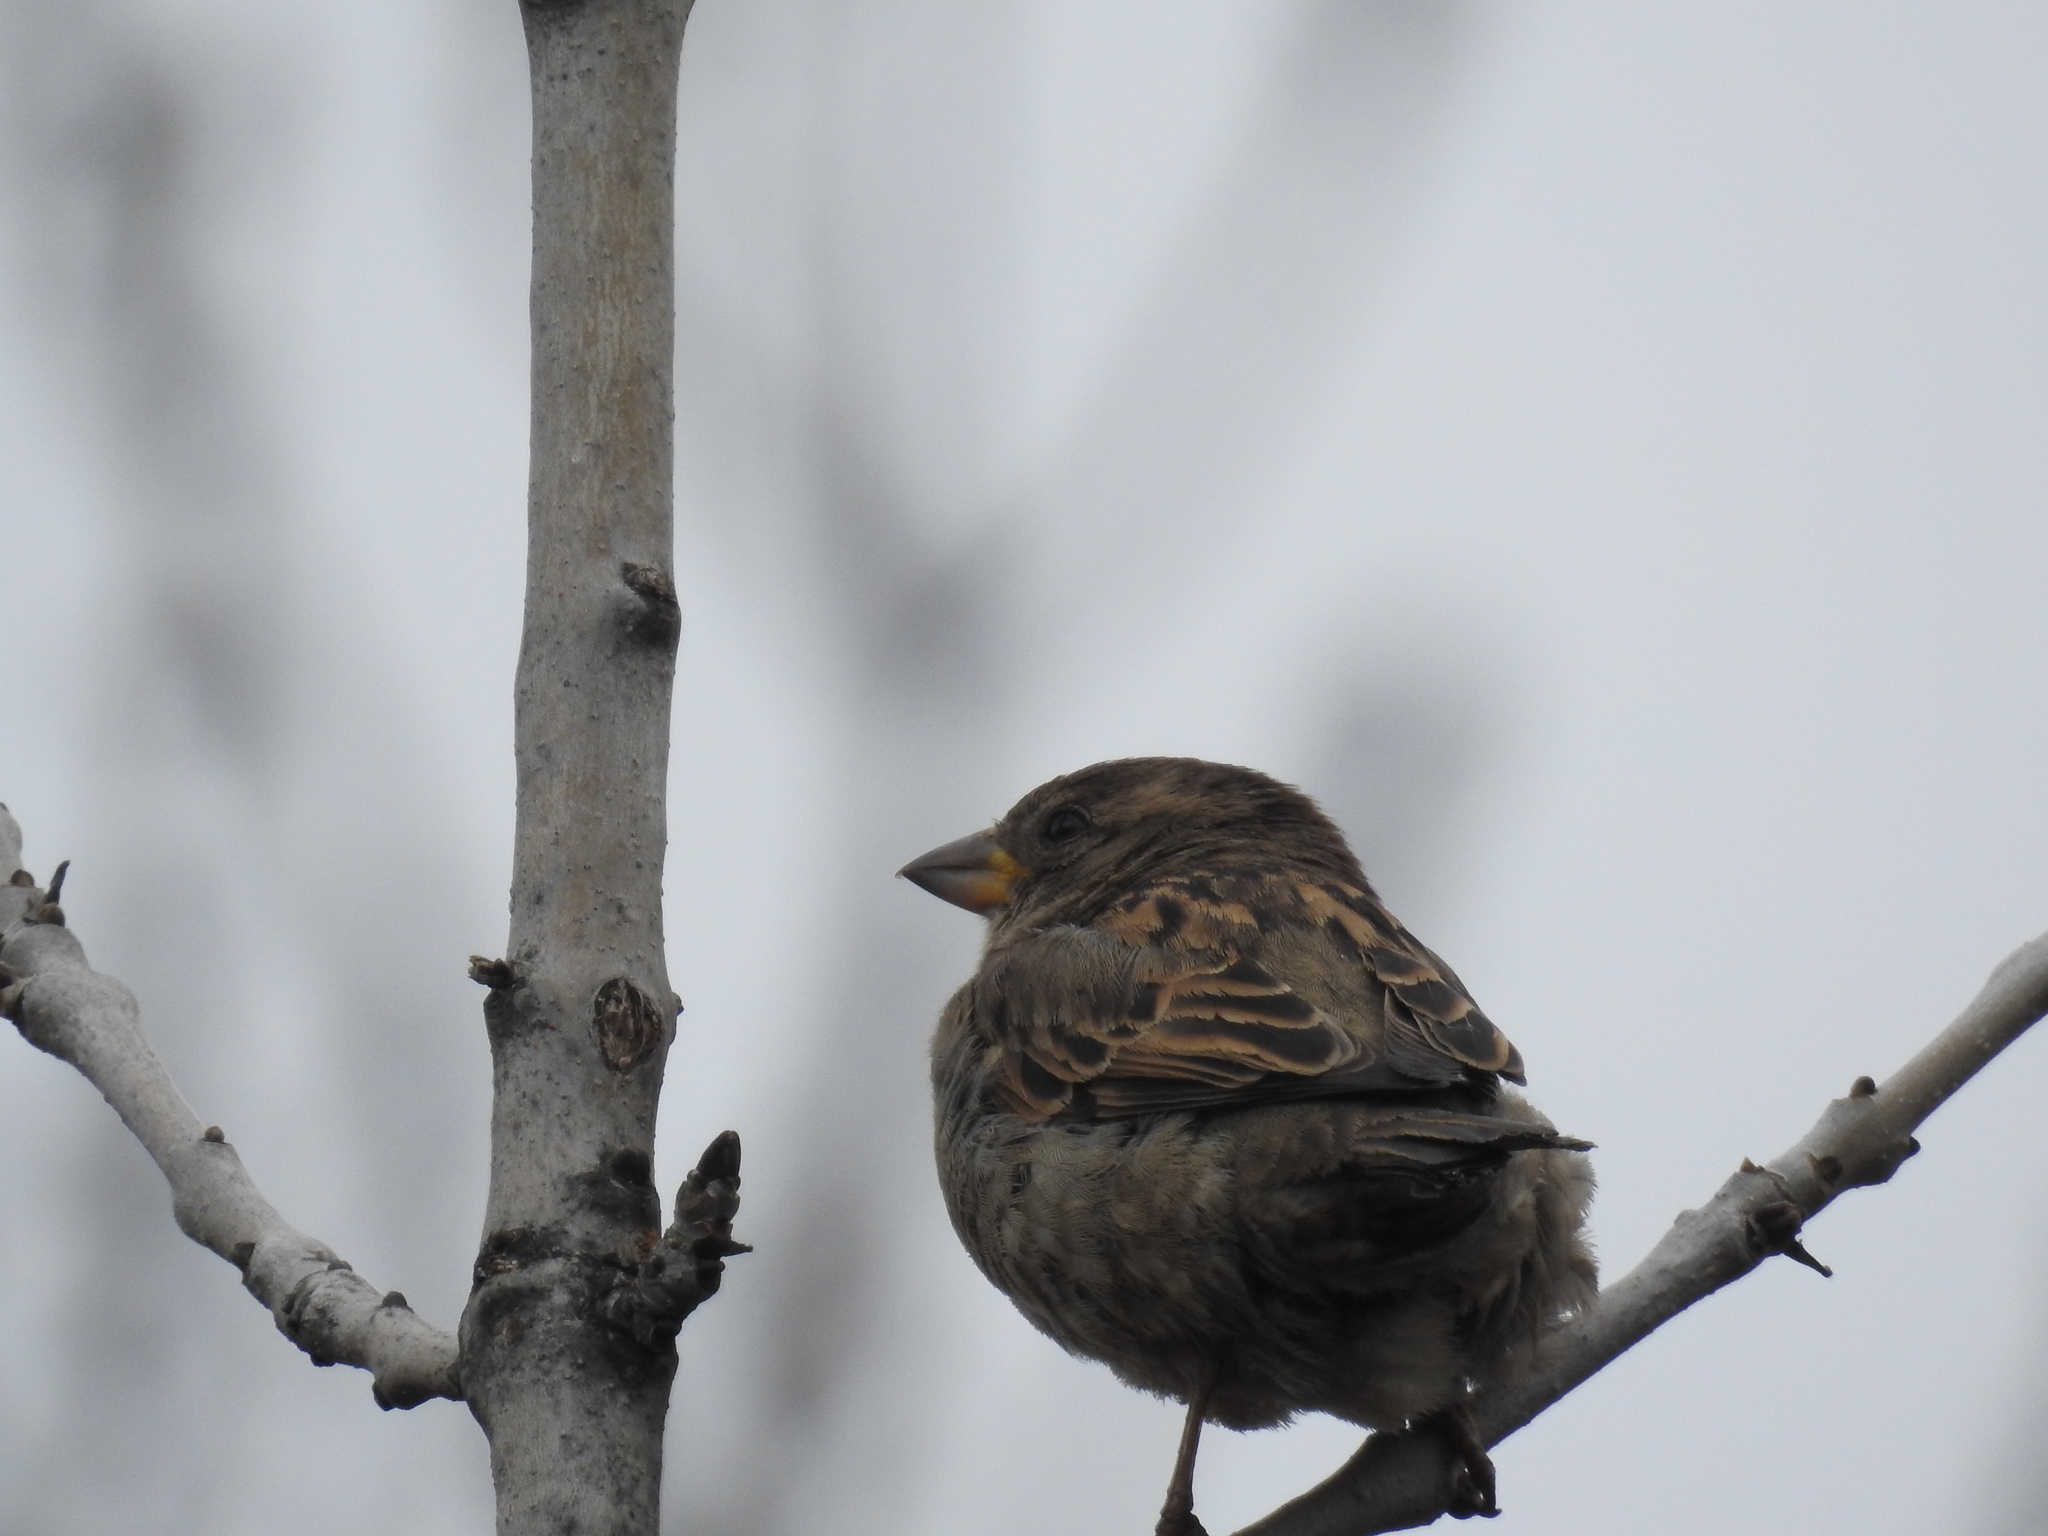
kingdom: Animalia
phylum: Chordata
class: Aves
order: Passeriformes
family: Passeridae
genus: Passer
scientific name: Passer domesticus
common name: House sparrow
